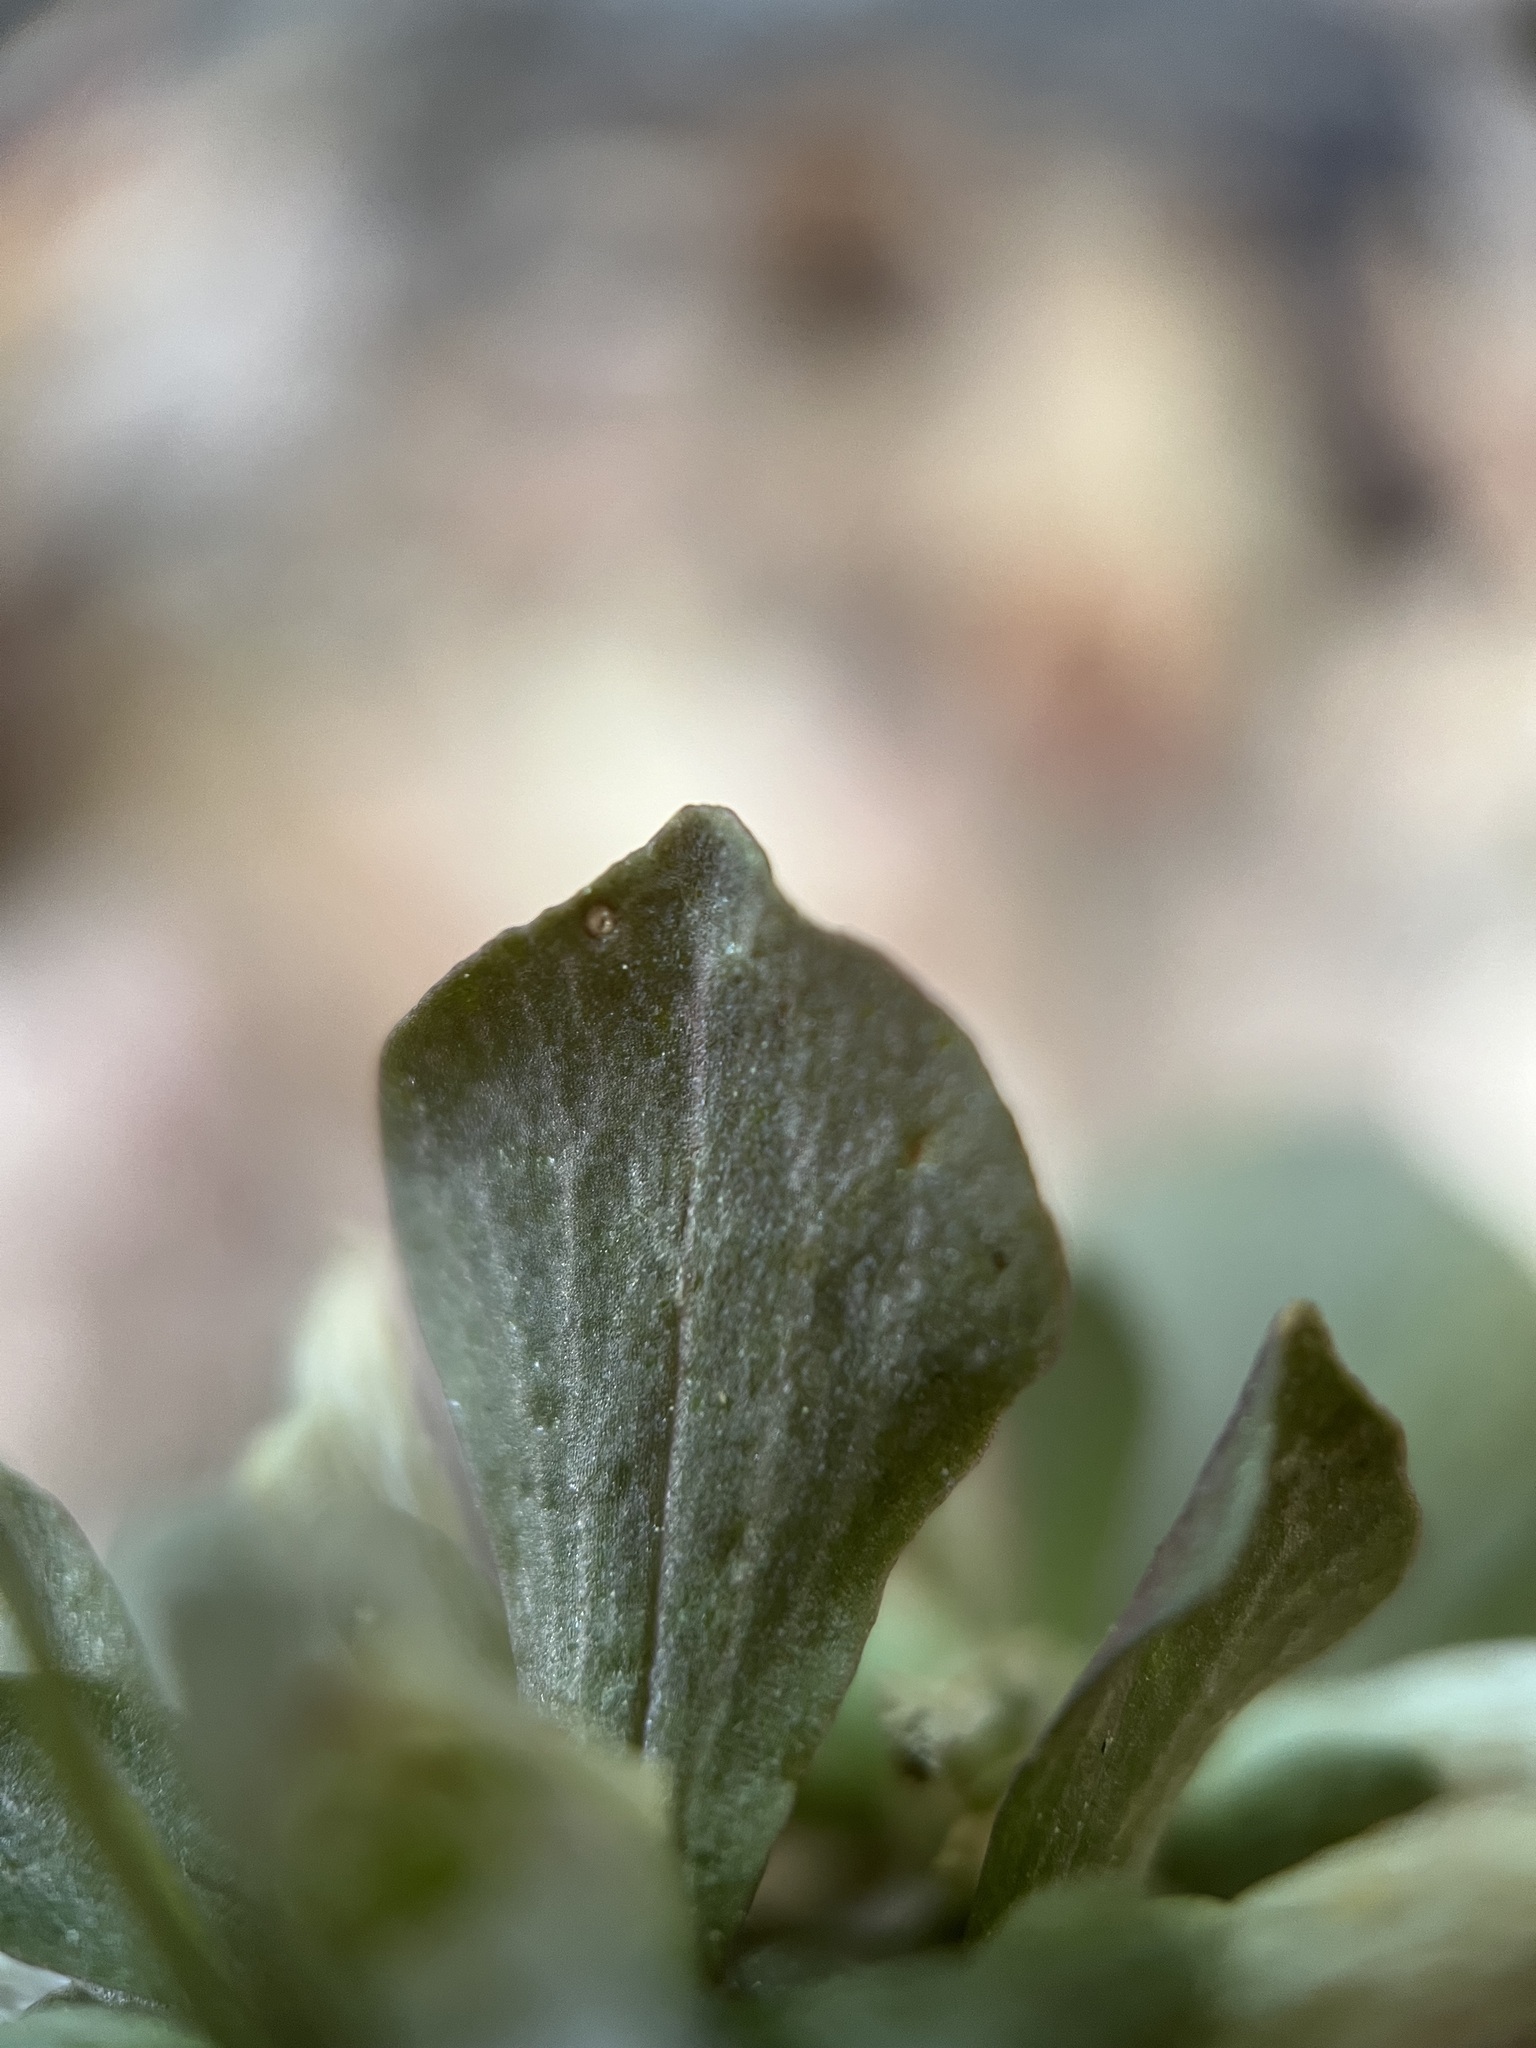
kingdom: Plantae
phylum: Tracheophyta
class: Magnoliopsida
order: Gentianales
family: Gentianaceae
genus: Obolaria
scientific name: Obolaria virginica
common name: Pennywort
